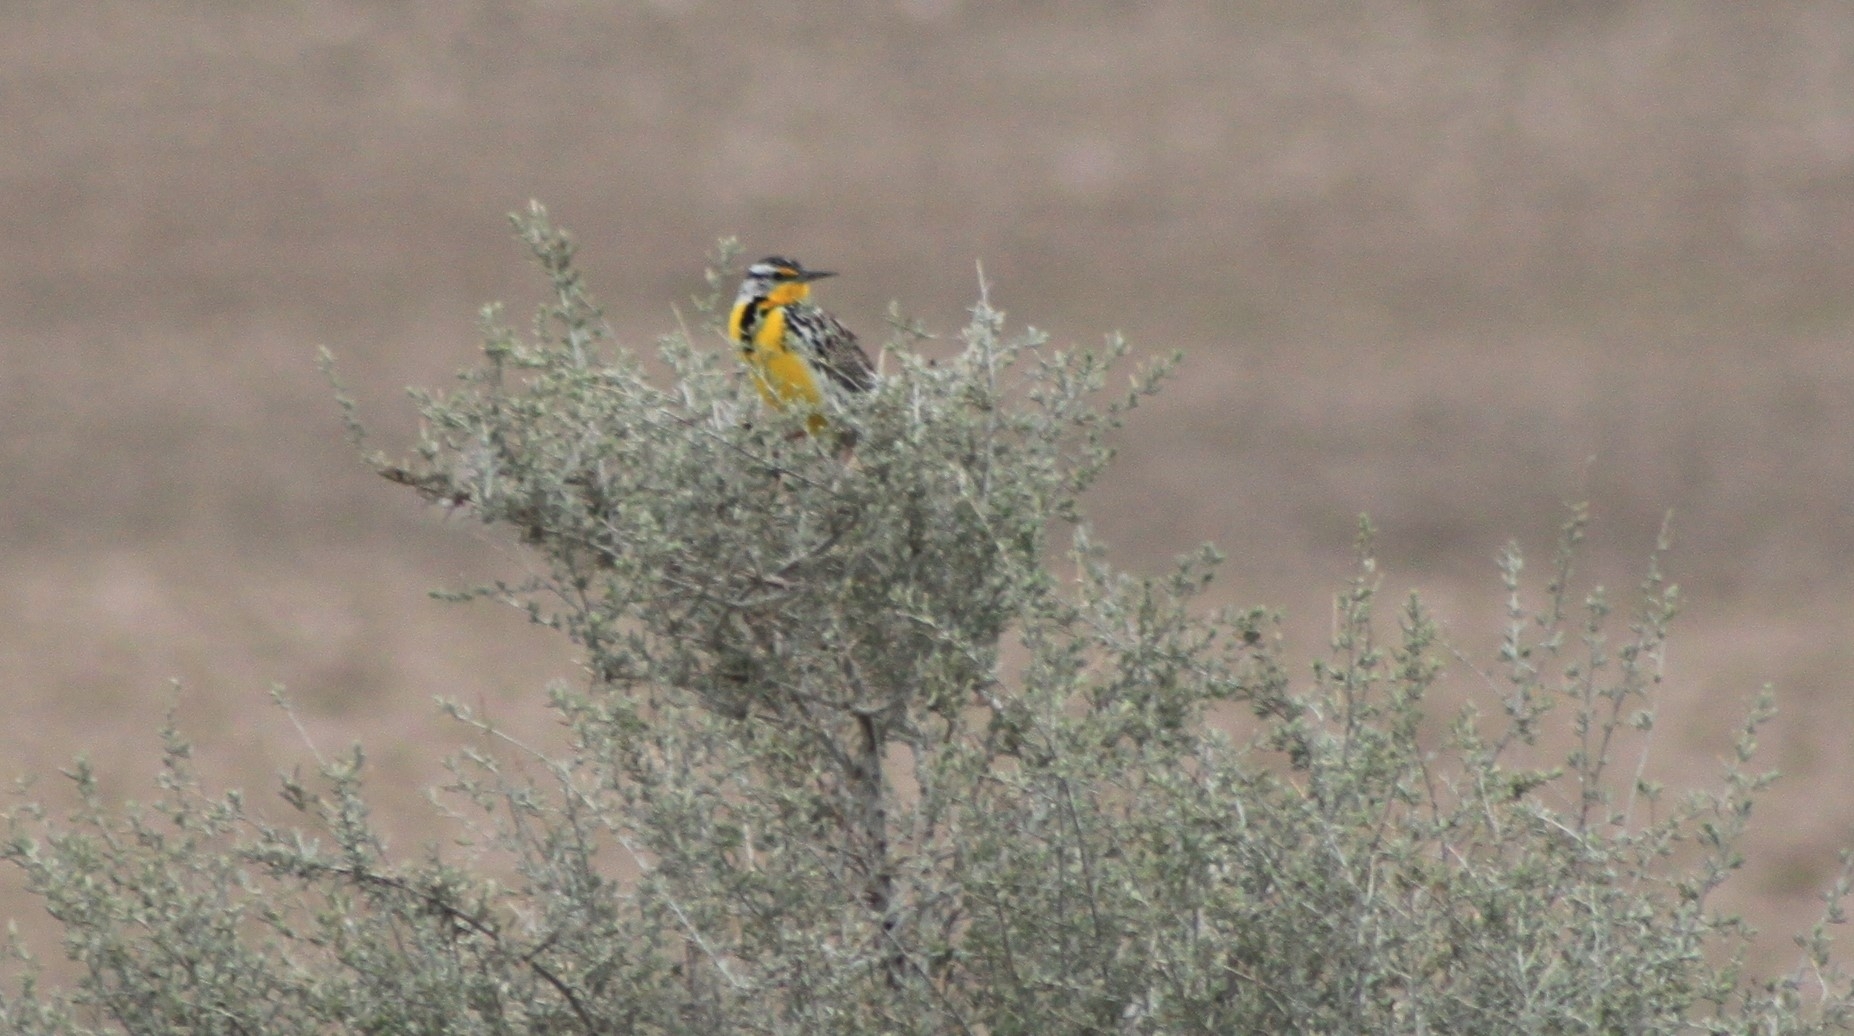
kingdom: Animalia
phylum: Chordata
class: Aves
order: Passeriformes
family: Icteridae
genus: Sturnella
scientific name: Sturnella neglecta
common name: Western meadowlark
